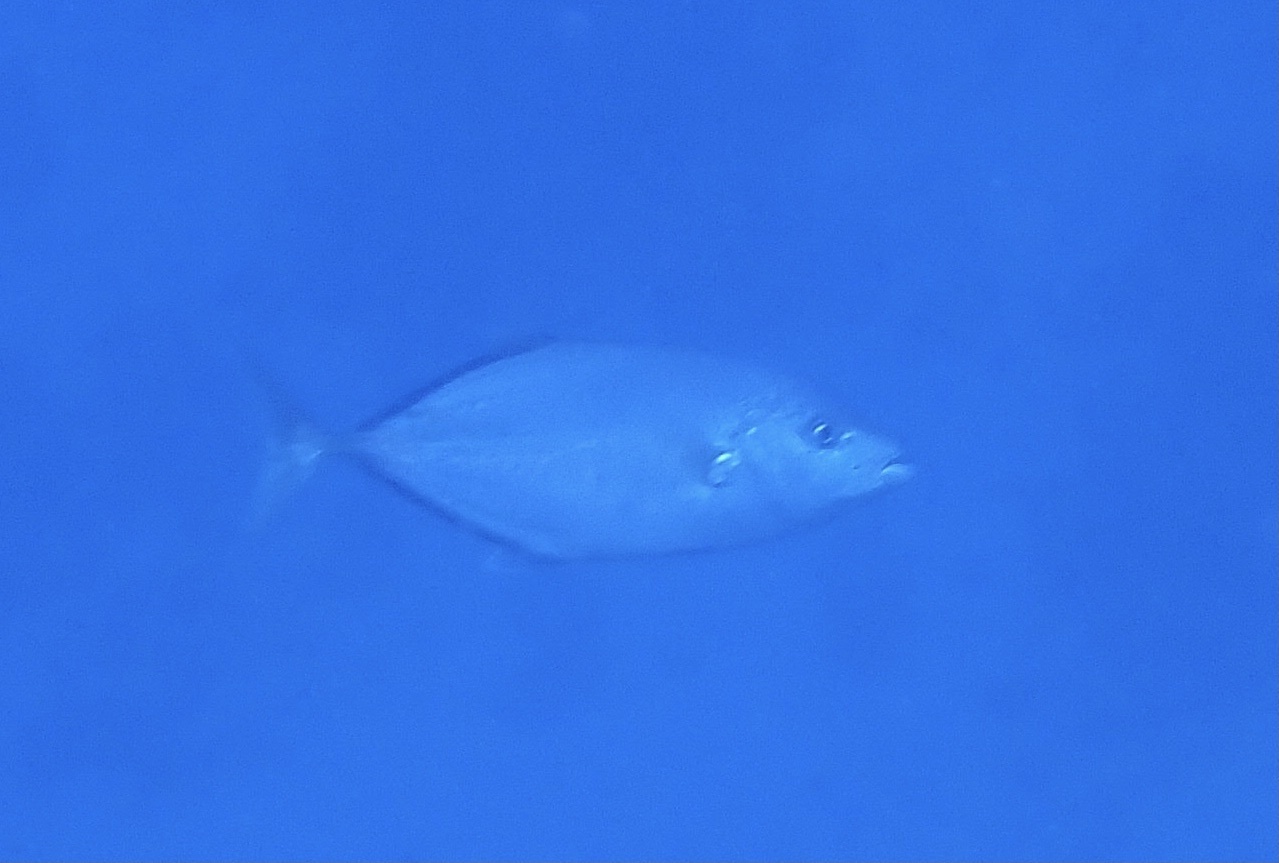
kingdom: Animalia
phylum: Chordata
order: Perciformes
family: Carangidae
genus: Flavocaranx
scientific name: Flavocaranx bajad
